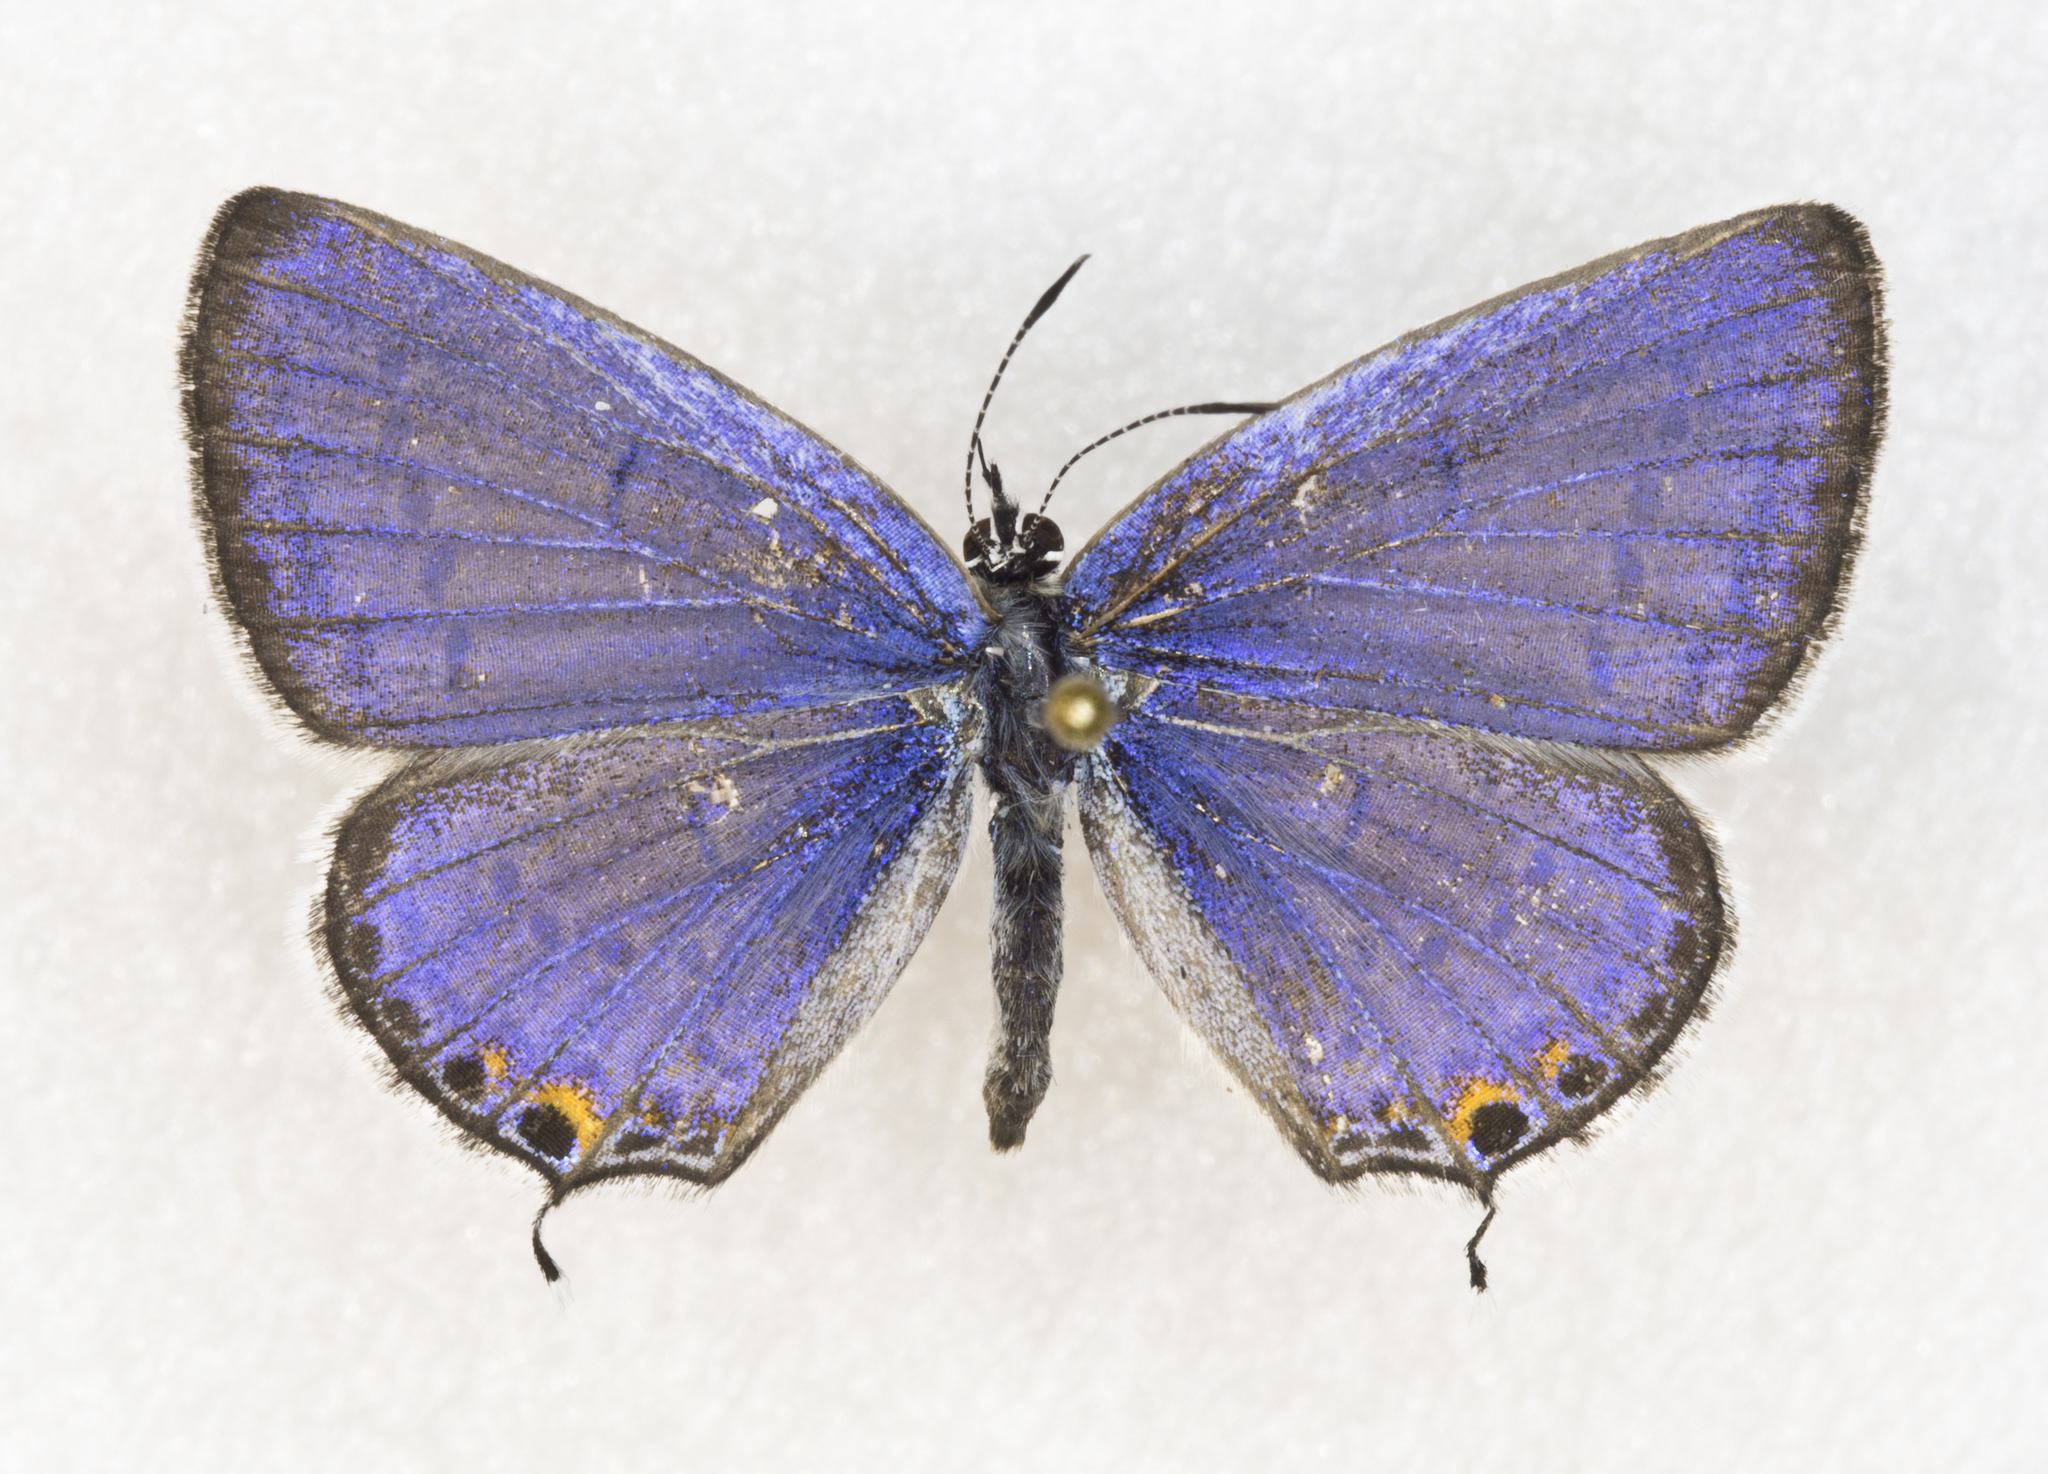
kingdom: Animalia
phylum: Arthropoda
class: Insecta
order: Lepidoptera
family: Lycaenidae
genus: Elkalyce
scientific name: Elkalyce amyntula
